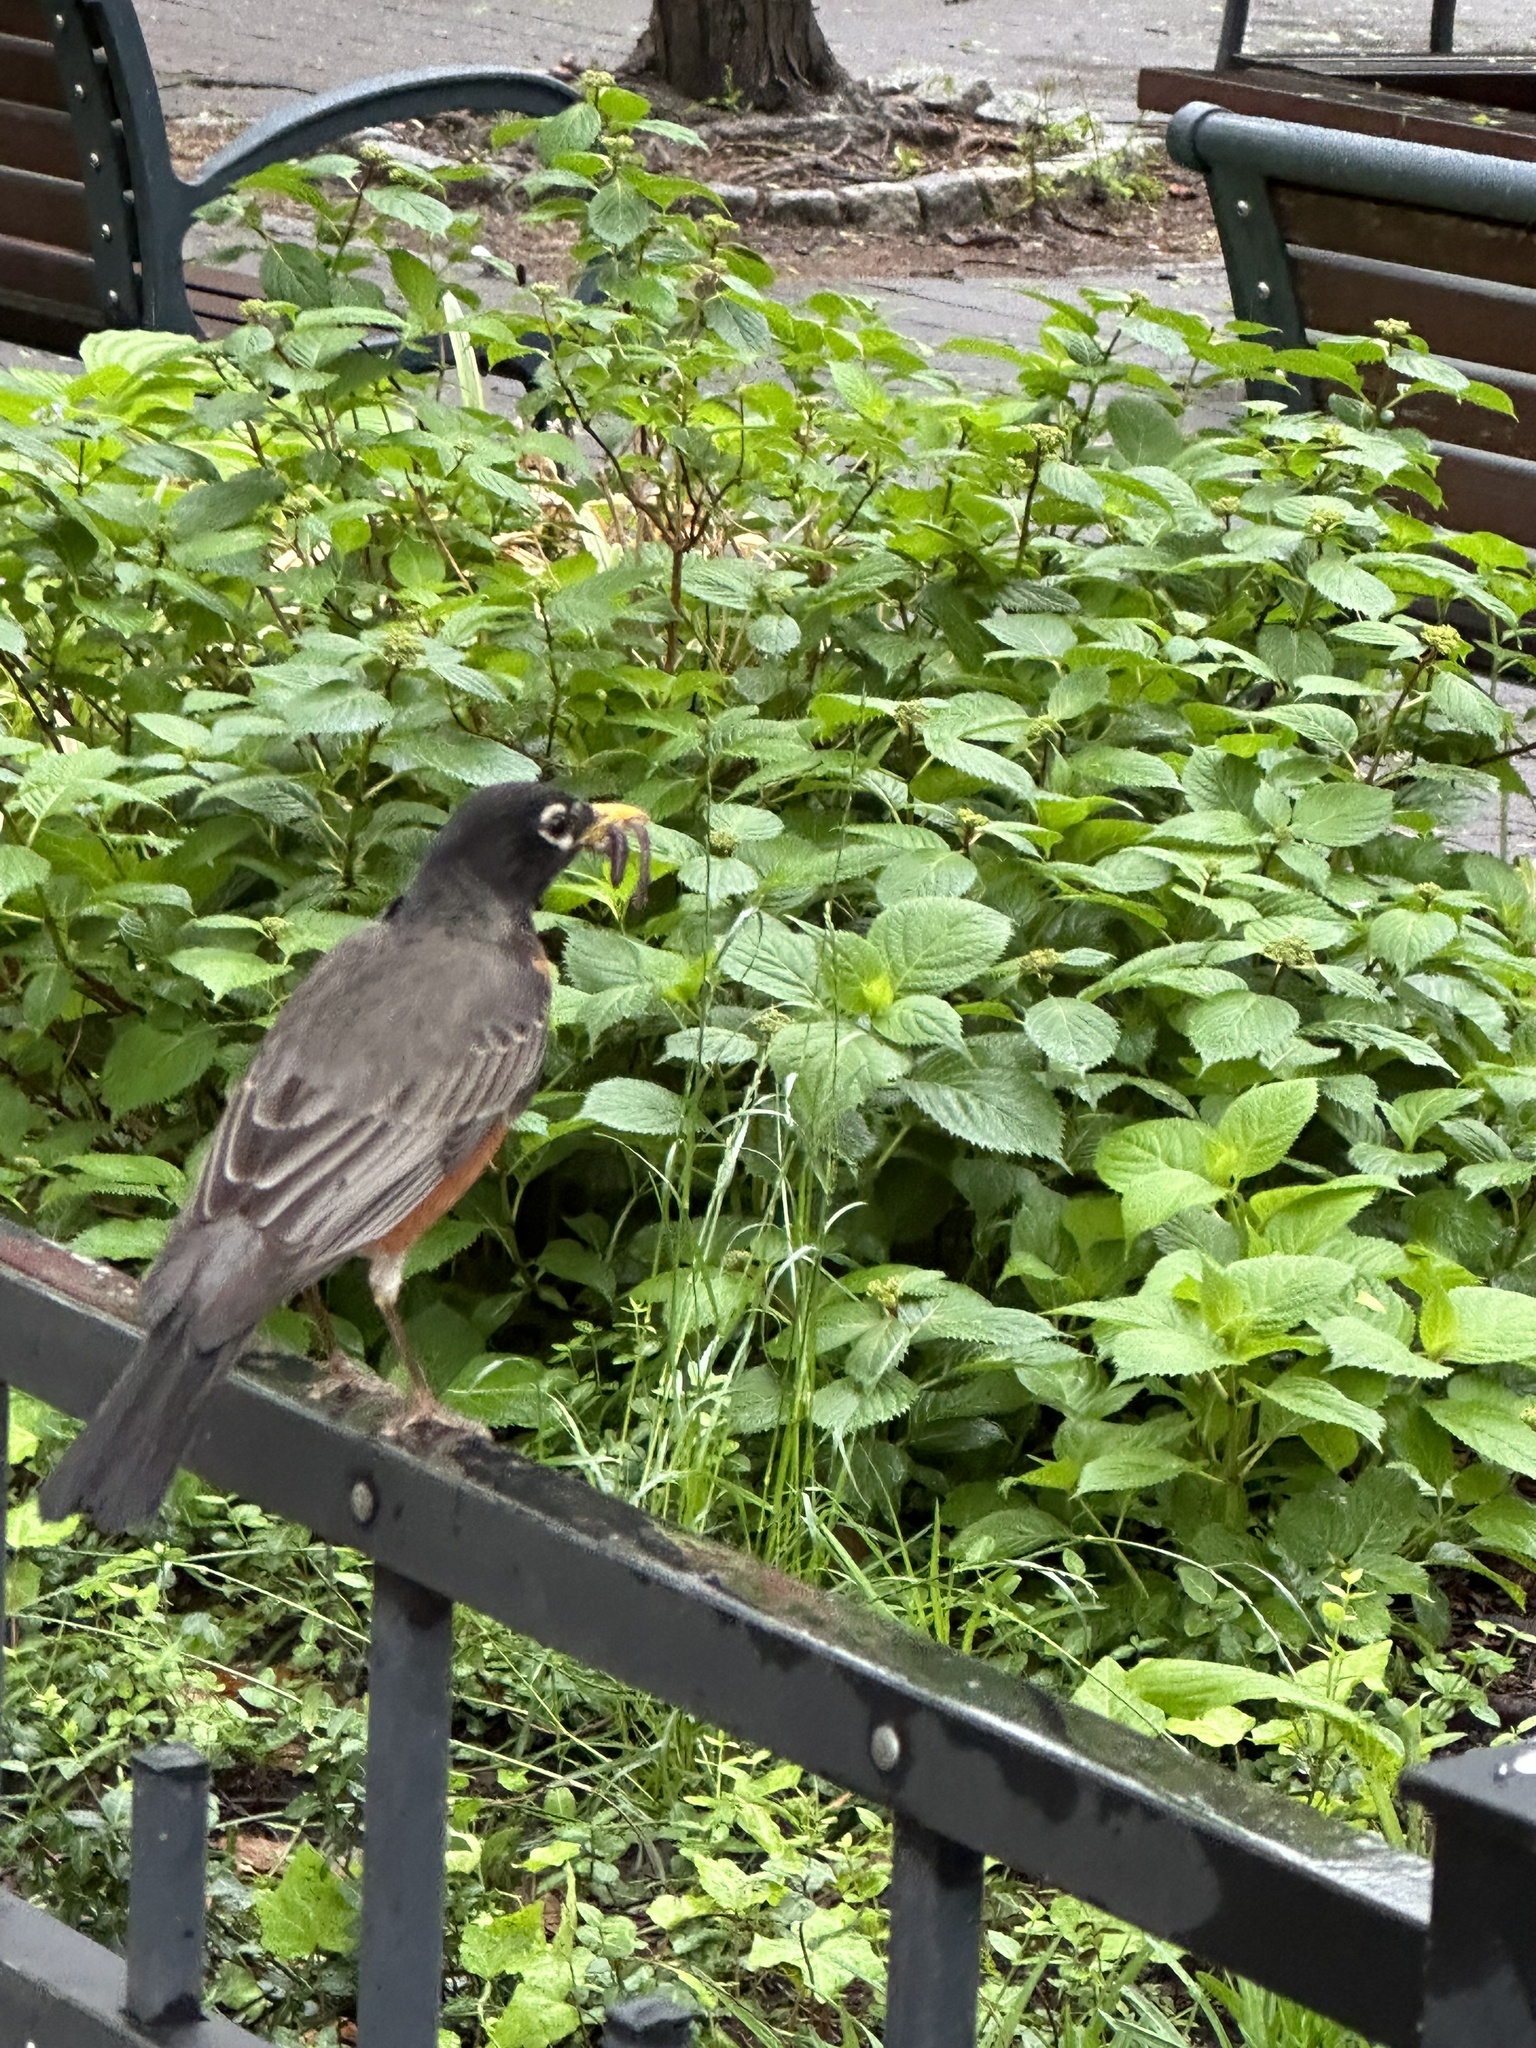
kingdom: Animalia
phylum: Chordata
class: Aves
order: Passeriformes
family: Turdidae
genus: Turdus
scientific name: Turdus migratorius
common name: American robin
